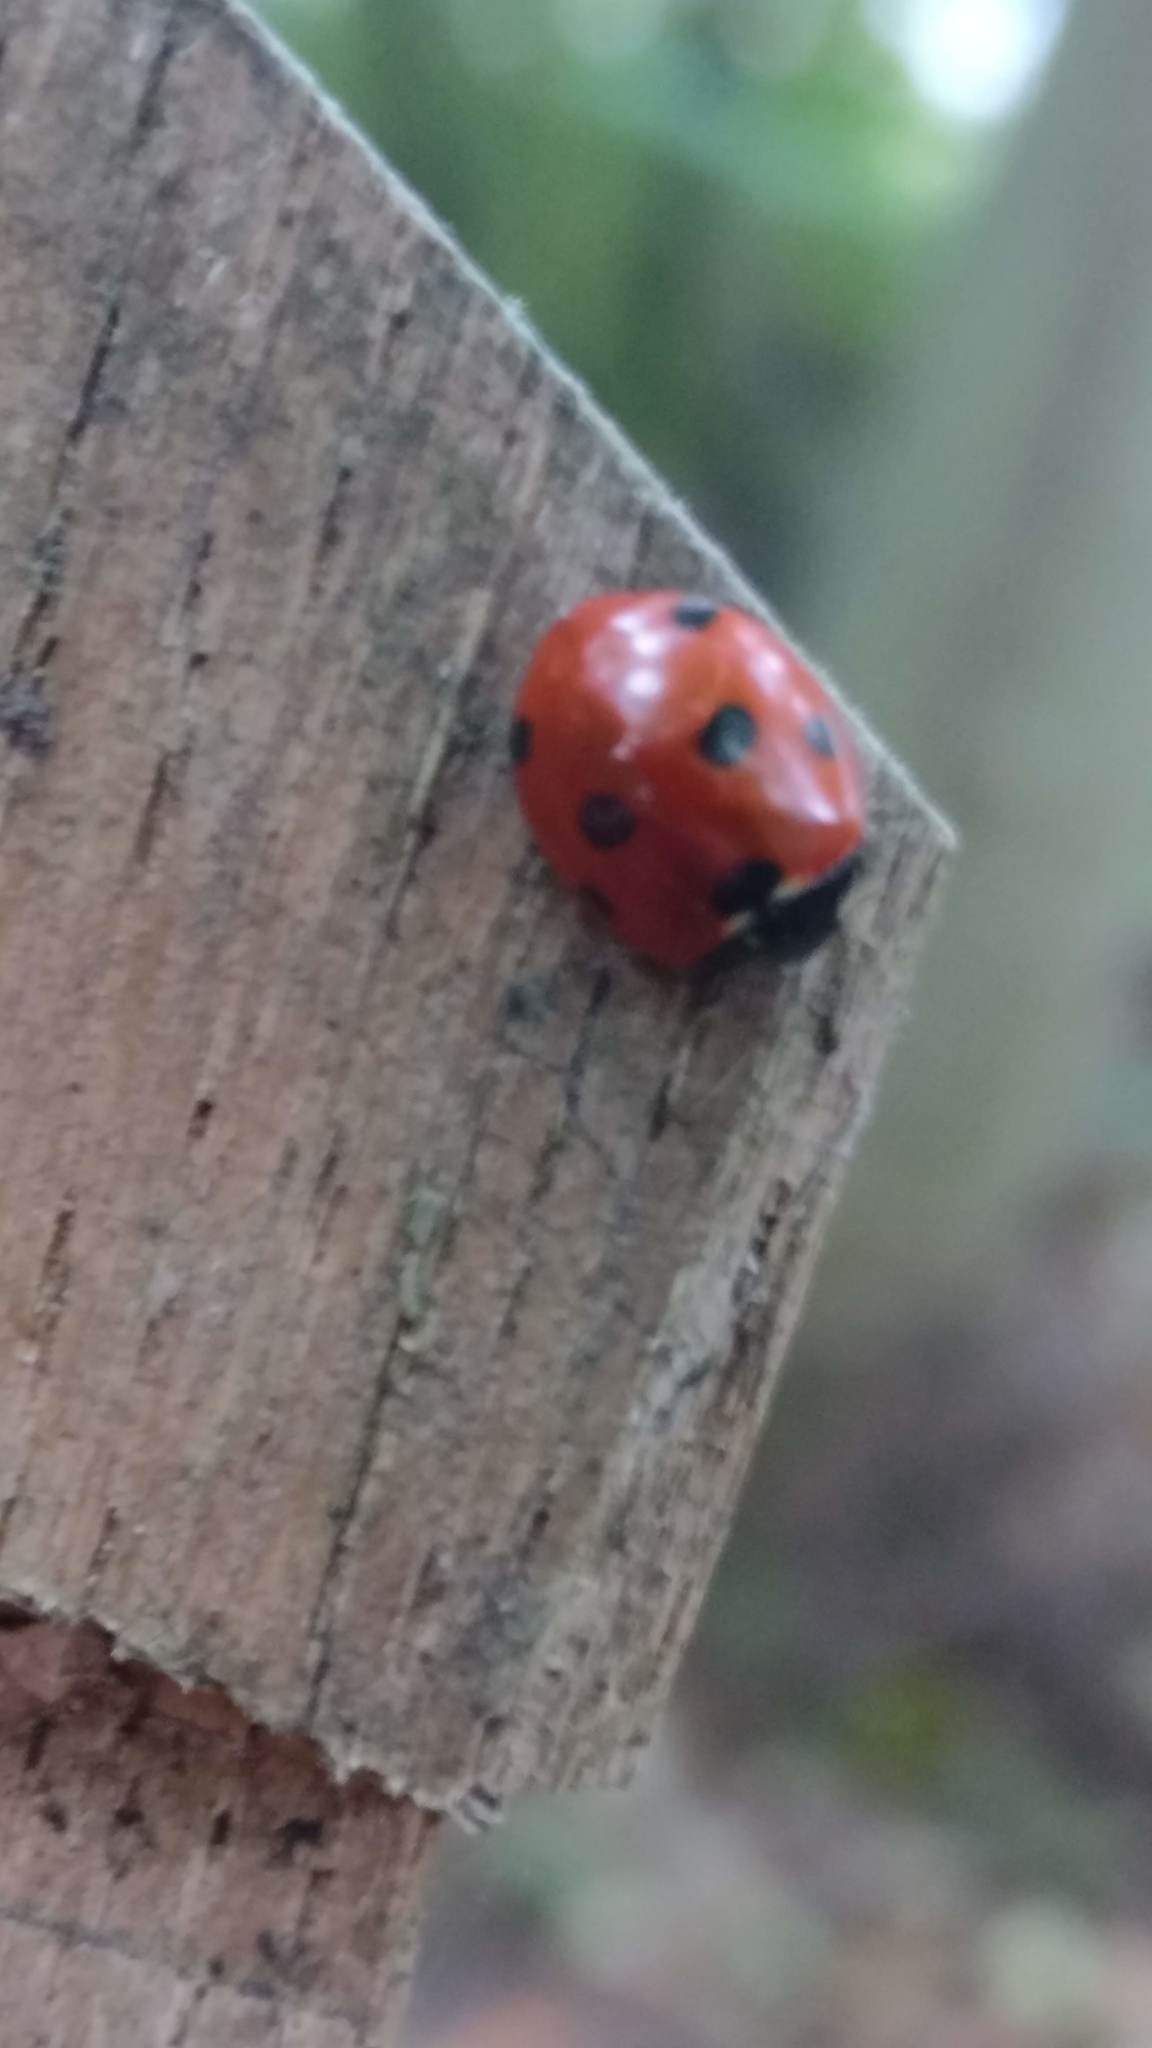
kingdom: Animalia
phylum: Arthropoda
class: Insecta
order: Coleoptera
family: Coccinellidae
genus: Coccinella
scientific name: Coccinella septempunctata
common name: Sevenspotted lady beetle
